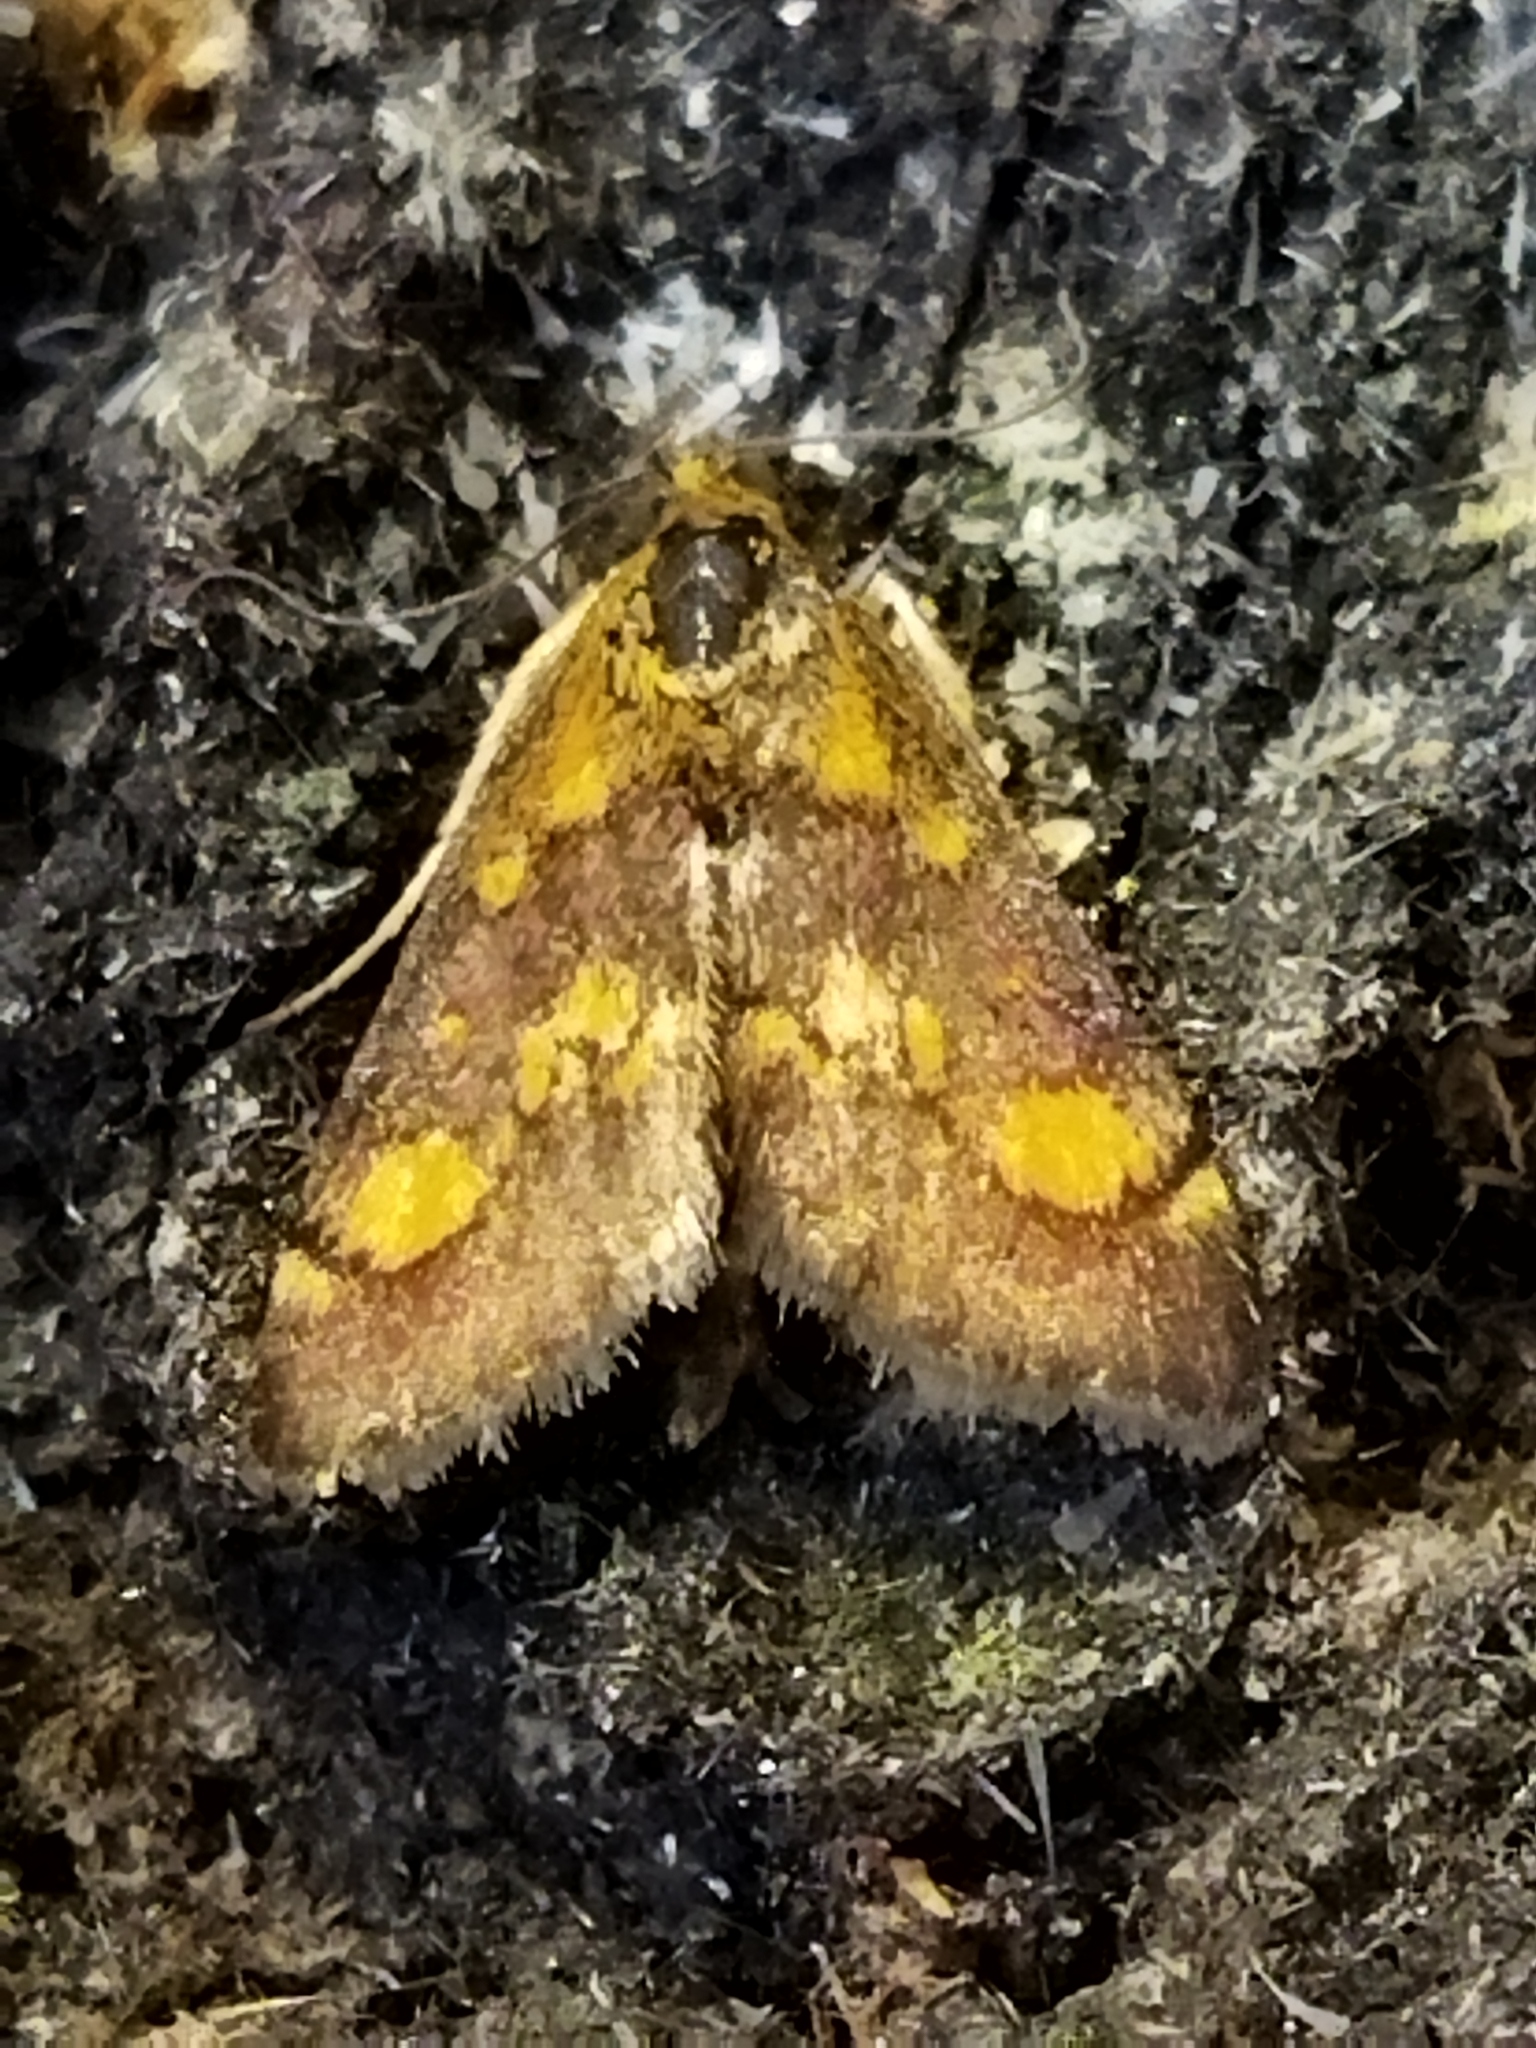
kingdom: Animalia
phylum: Arthropoda
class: Insecta
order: Lepidoptera
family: Crambidae
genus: Pyrausta
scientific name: Pyrausta aurata
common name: Small purple & gold
